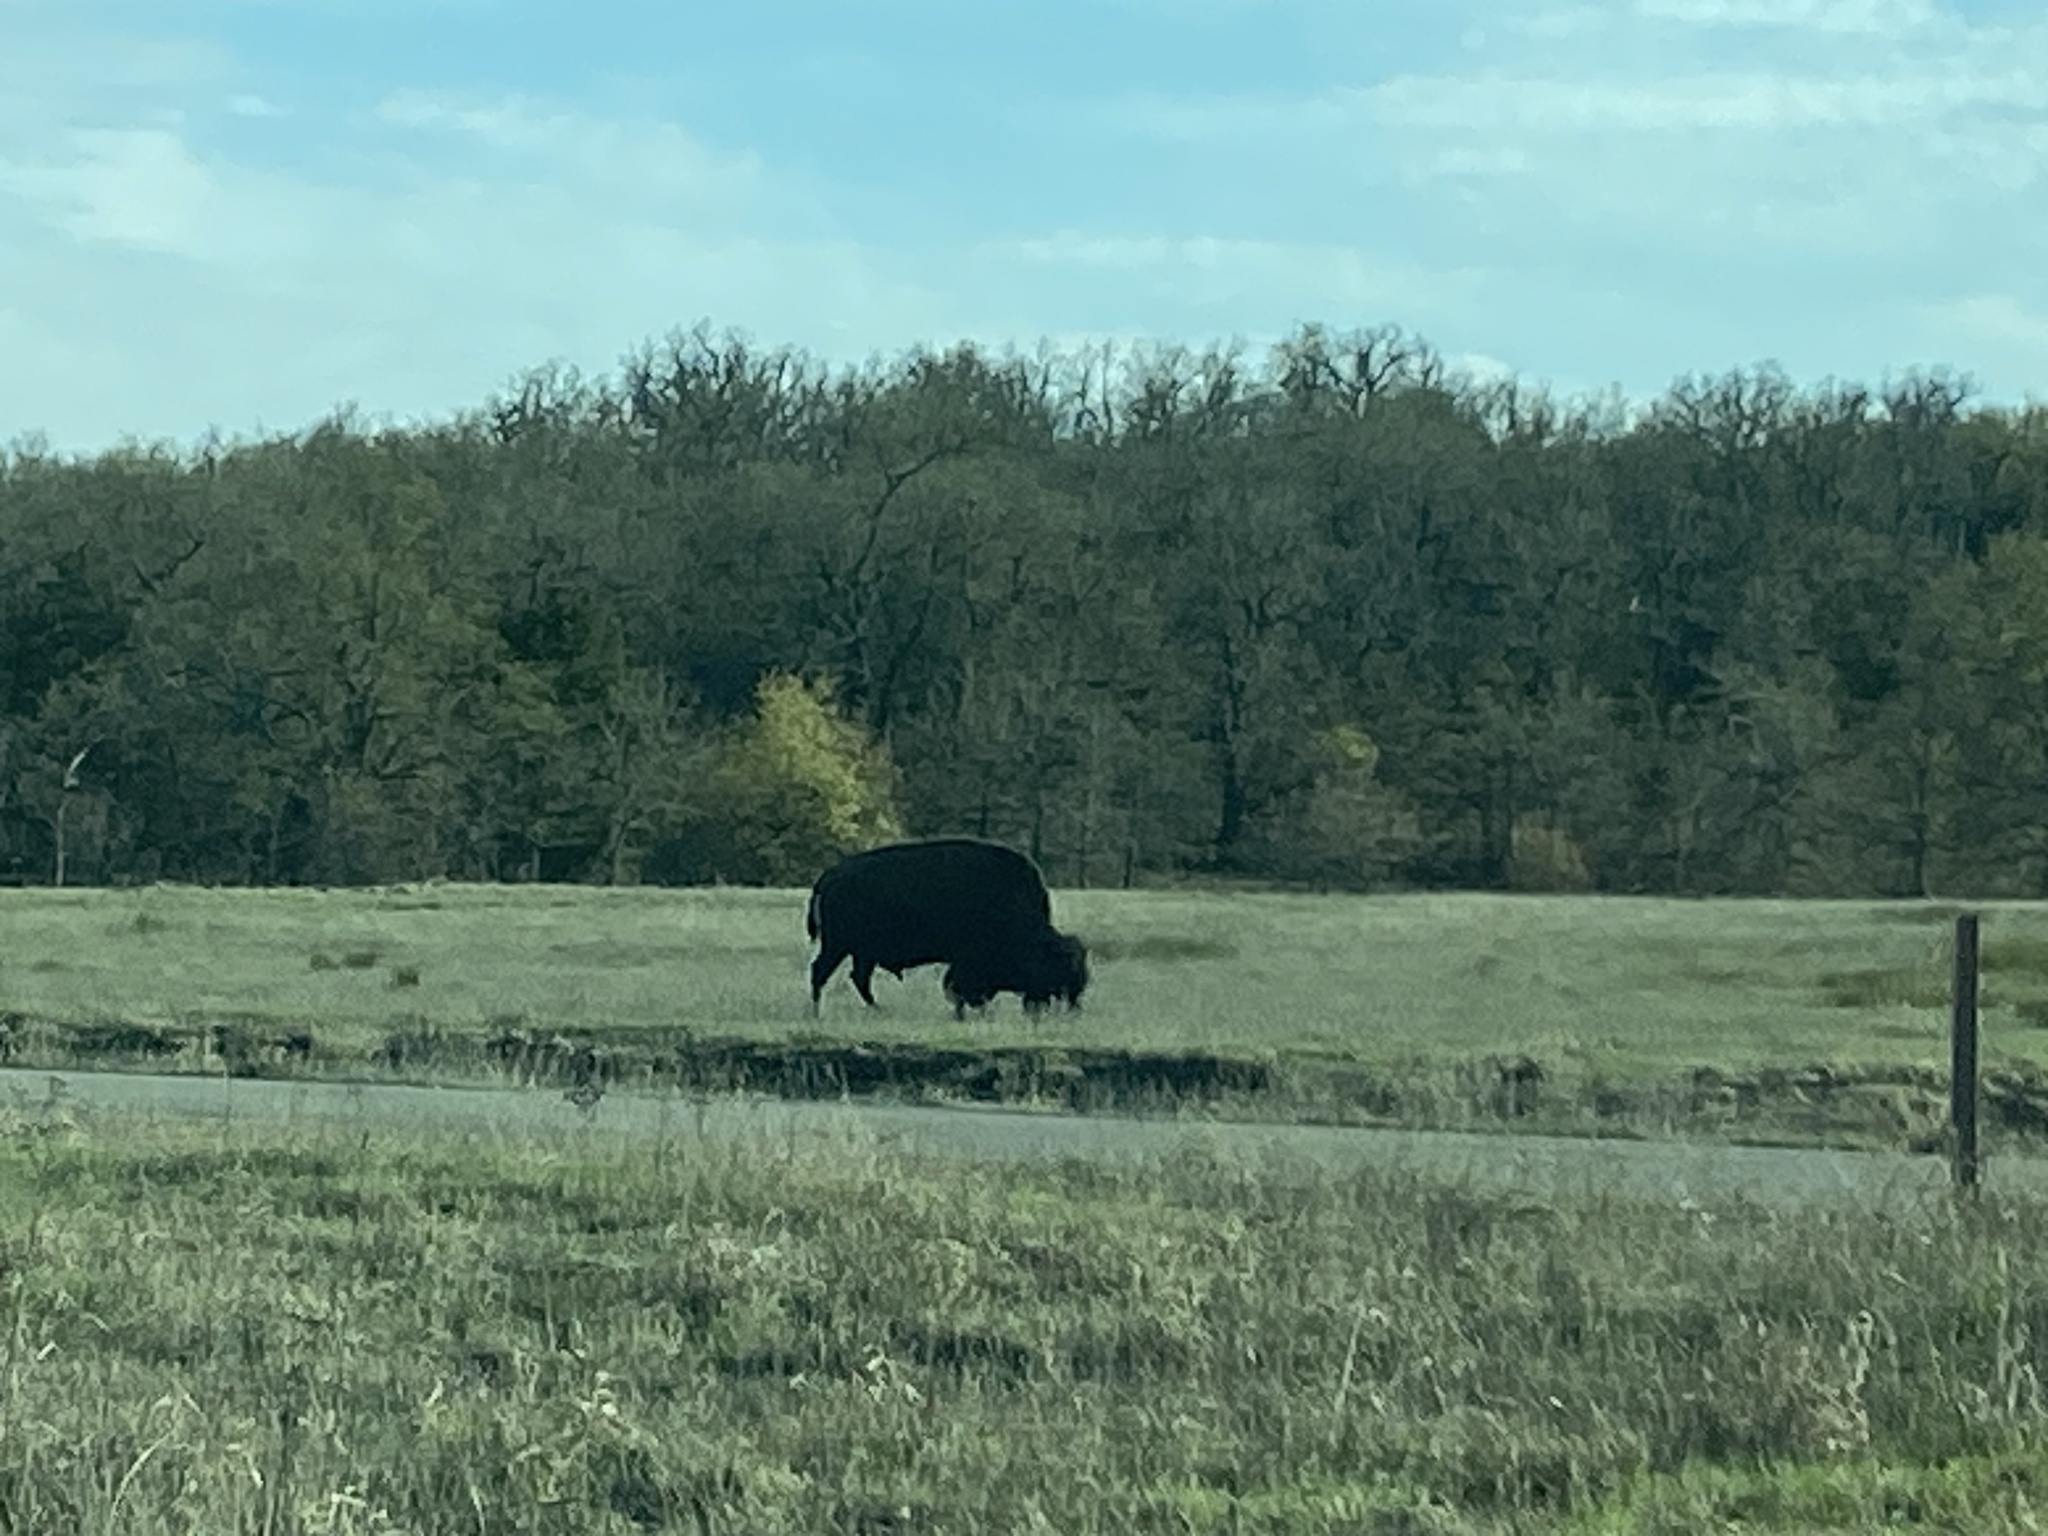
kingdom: Animalia
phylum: Chordata
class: Mammalia
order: Artiodactyla
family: Bovidae
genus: Bison
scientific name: Bison bison
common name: American bison
